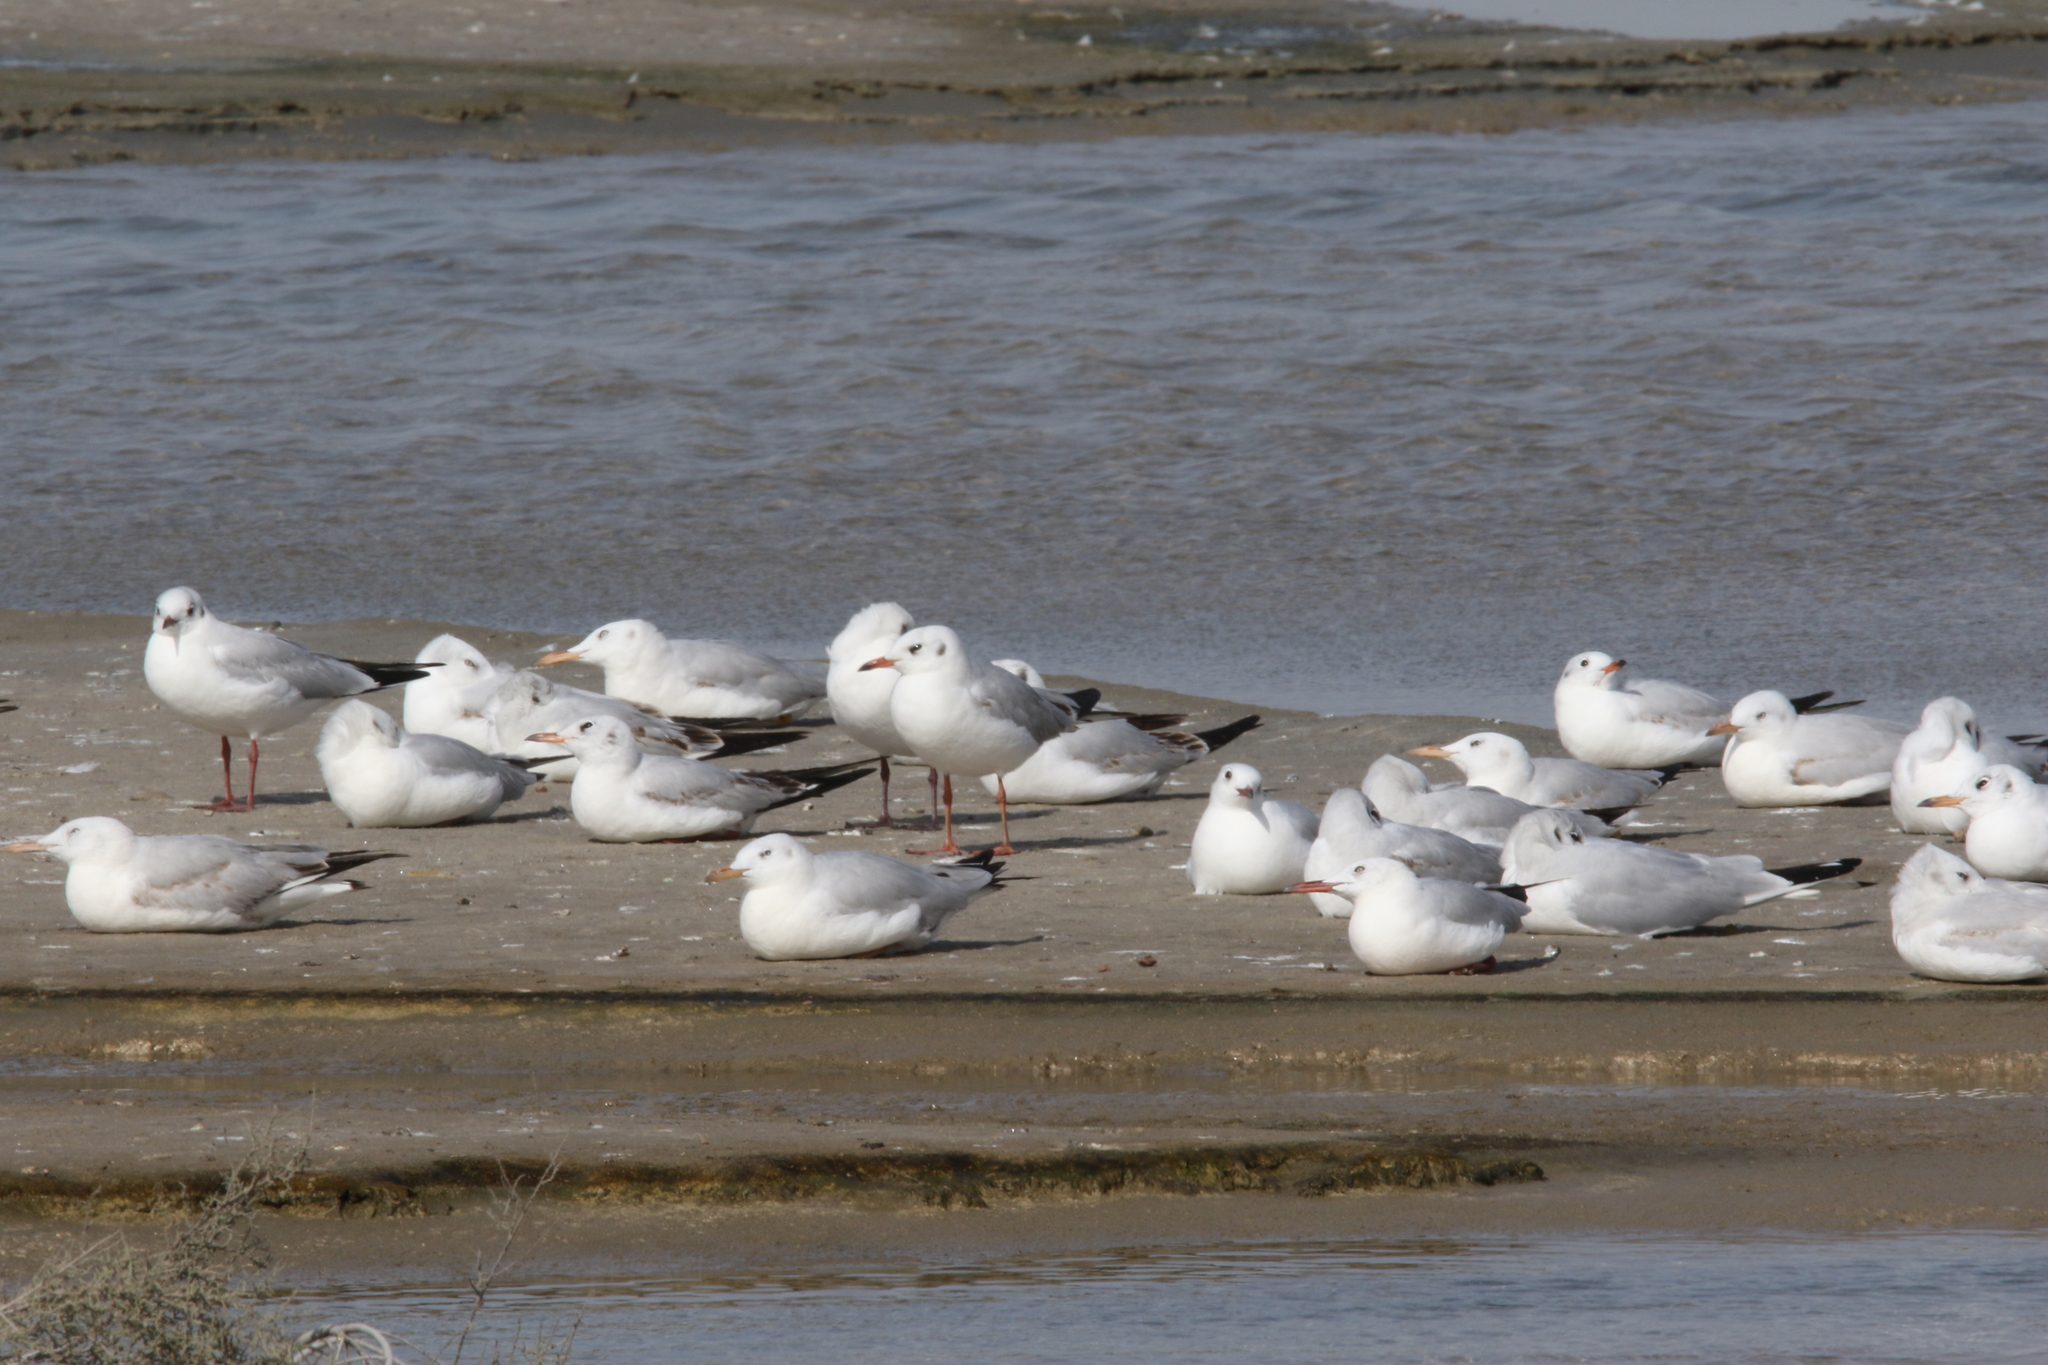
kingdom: Animalia
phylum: Chordata
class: Aves
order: Charadriiformes
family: Laridae
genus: Chroicocephalus
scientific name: Chroicocephalus ridibundus
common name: Black-headed gull
